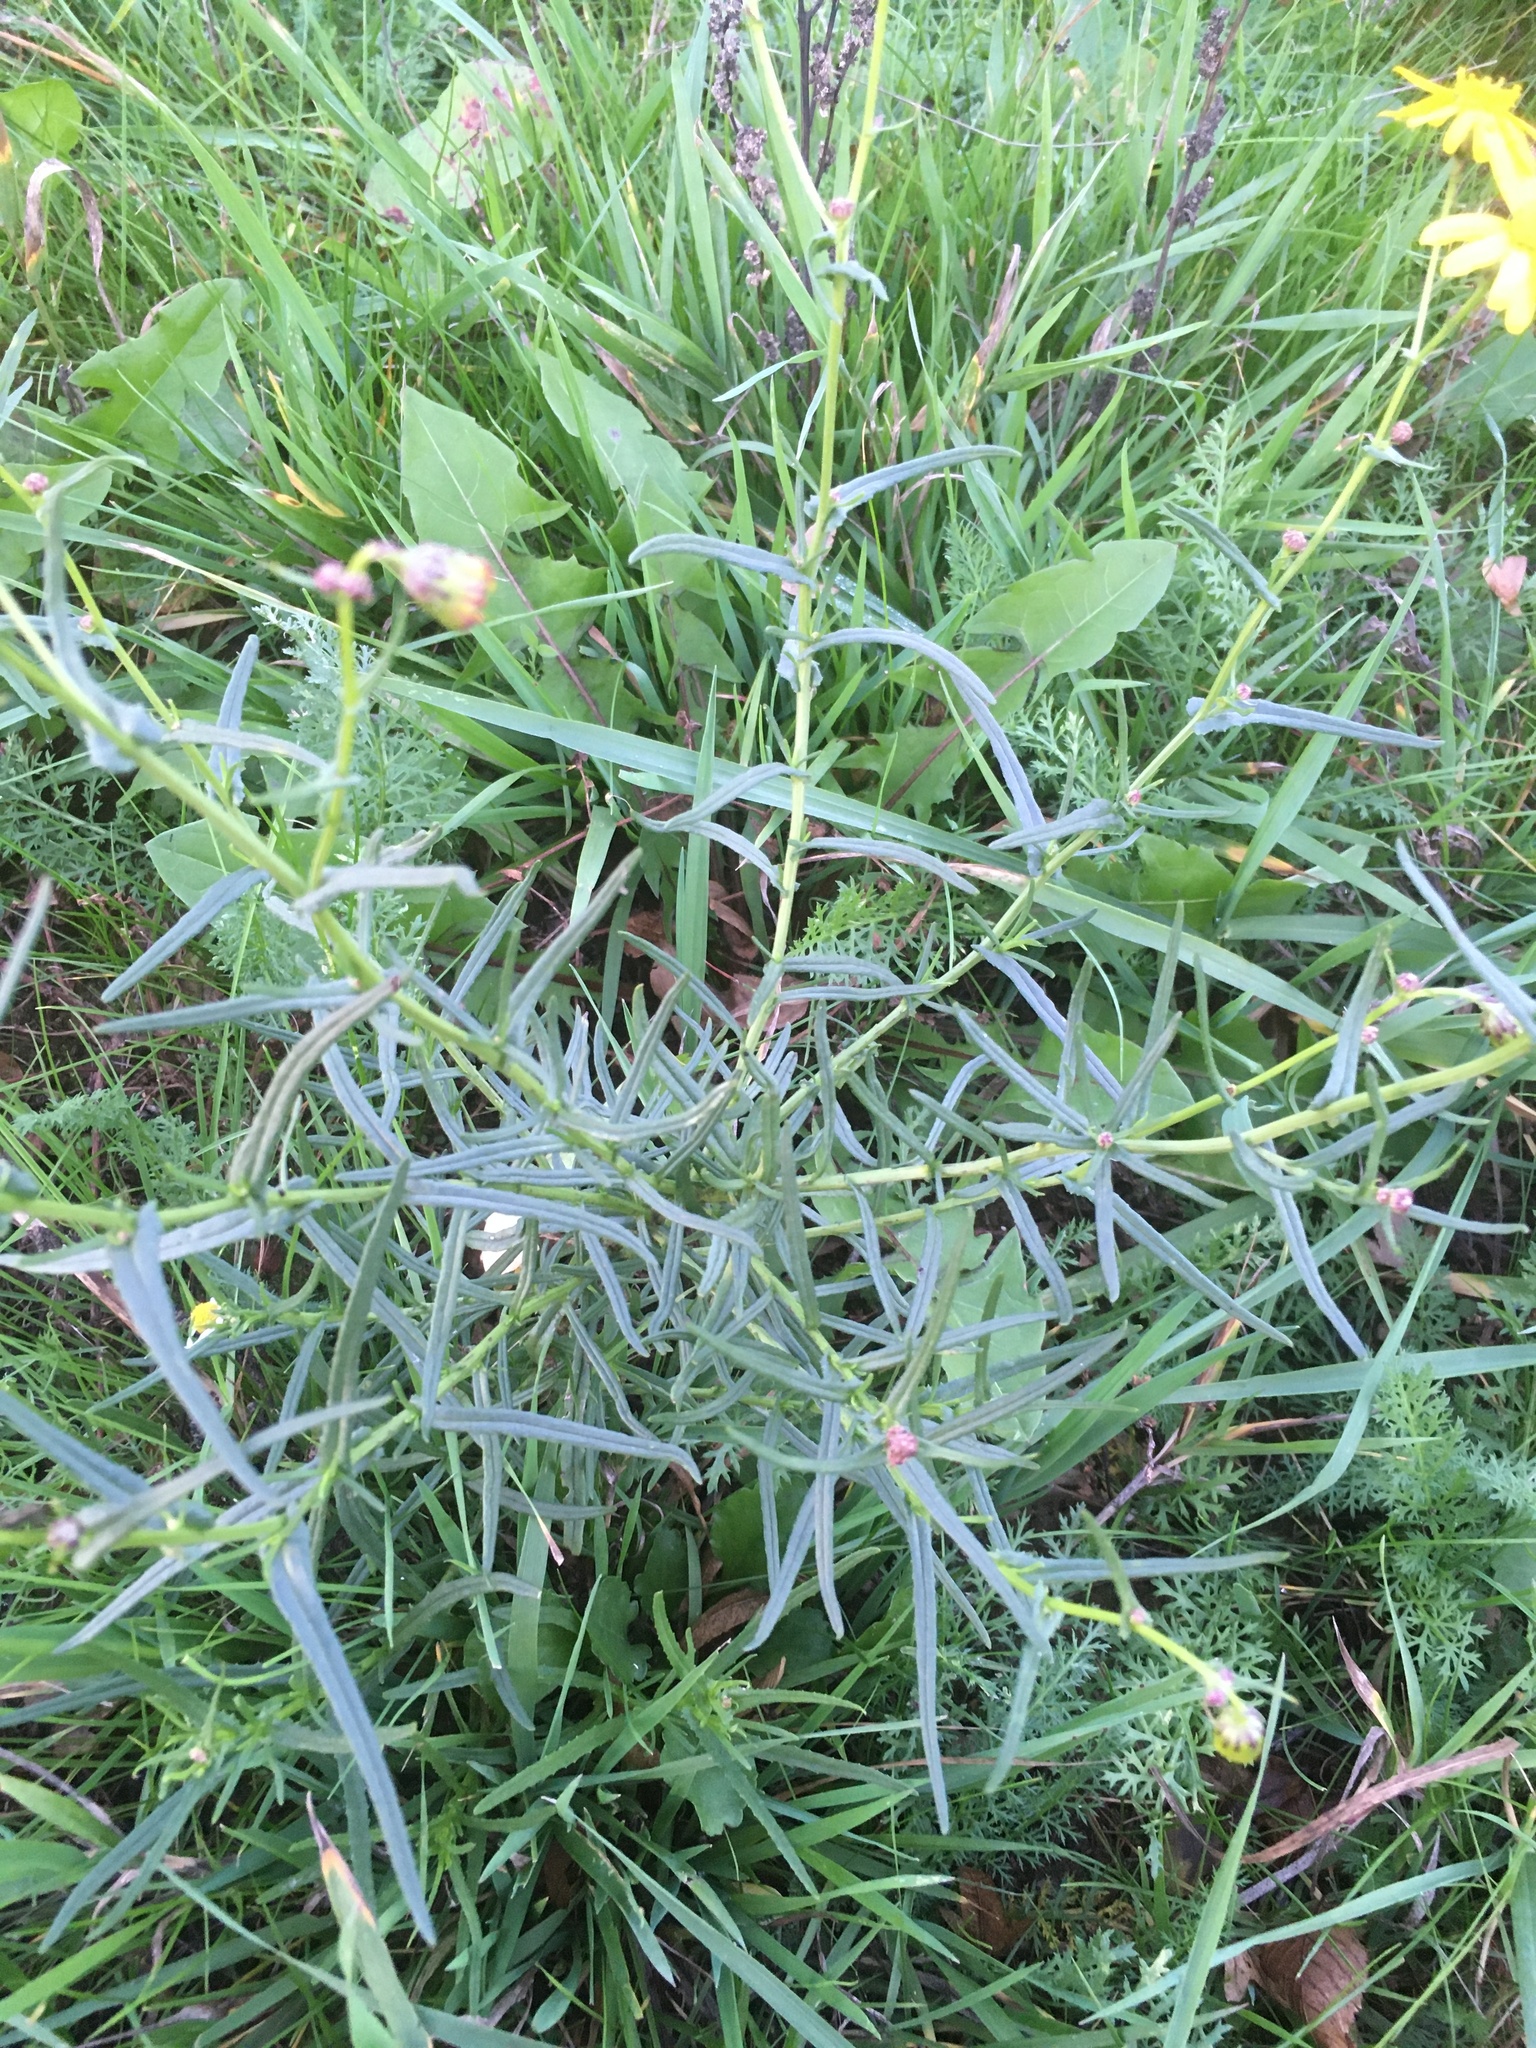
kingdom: Plantae
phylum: Tracheophyta
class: Magnoliopsida
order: Asterales
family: Asteraceae
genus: Senecio
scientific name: Senecio inaequidens
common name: Narrow-leaved ragwort
